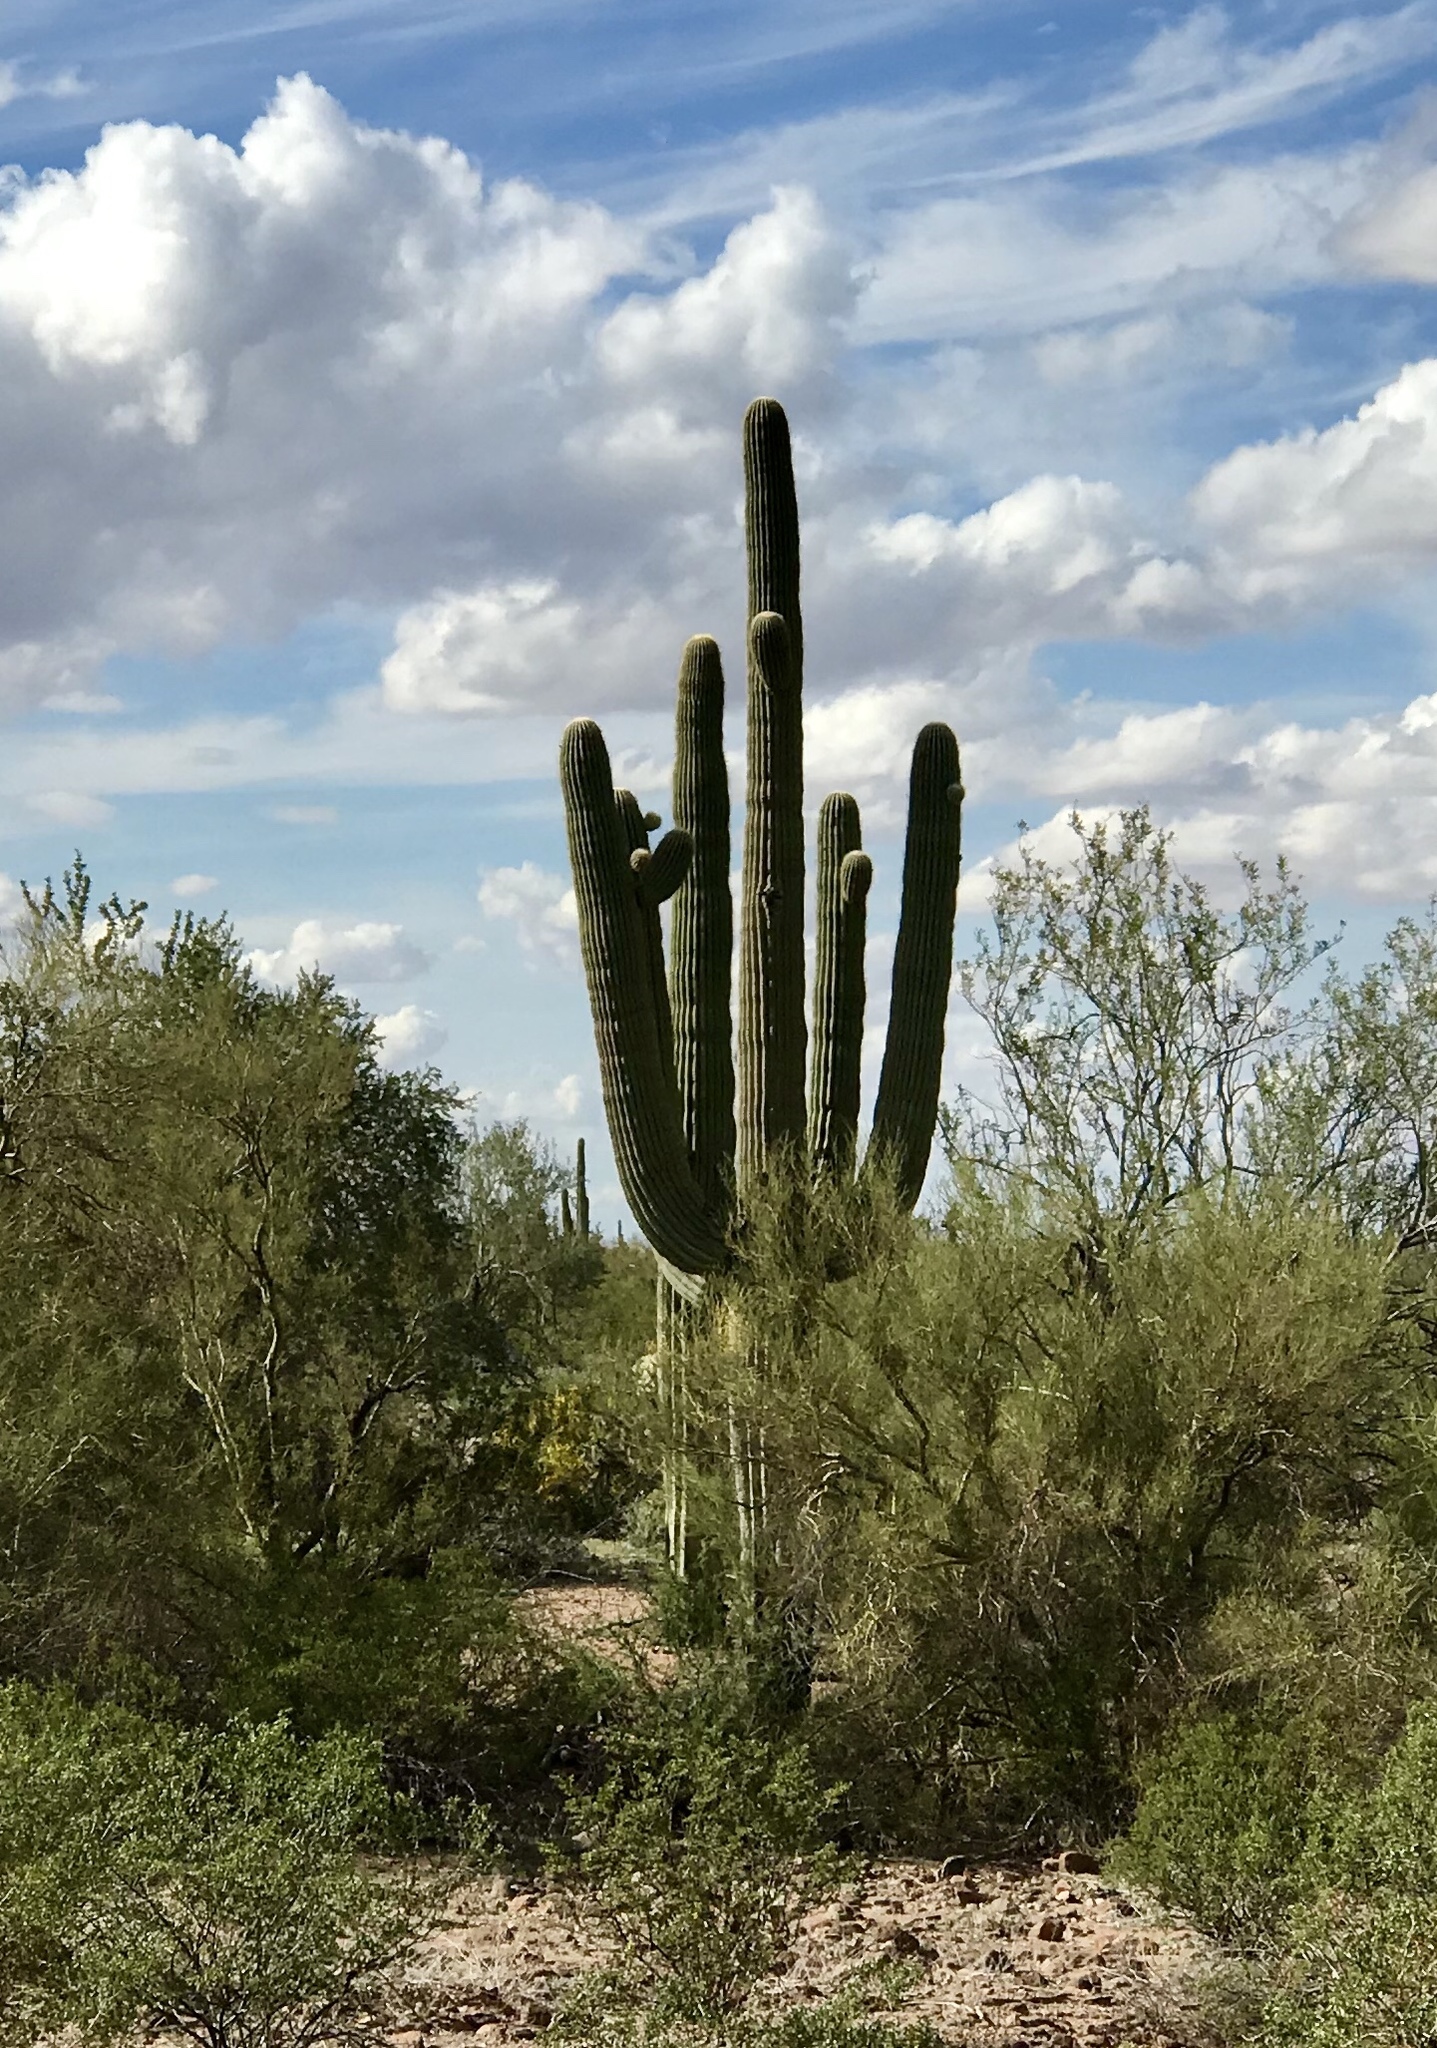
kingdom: Plantae
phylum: Tracheophyta
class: Magnoliopsida
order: Caryophyllales
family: Cactaceae
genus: Carnegiea
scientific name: Carnegiea gigantea
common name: Saguaro
